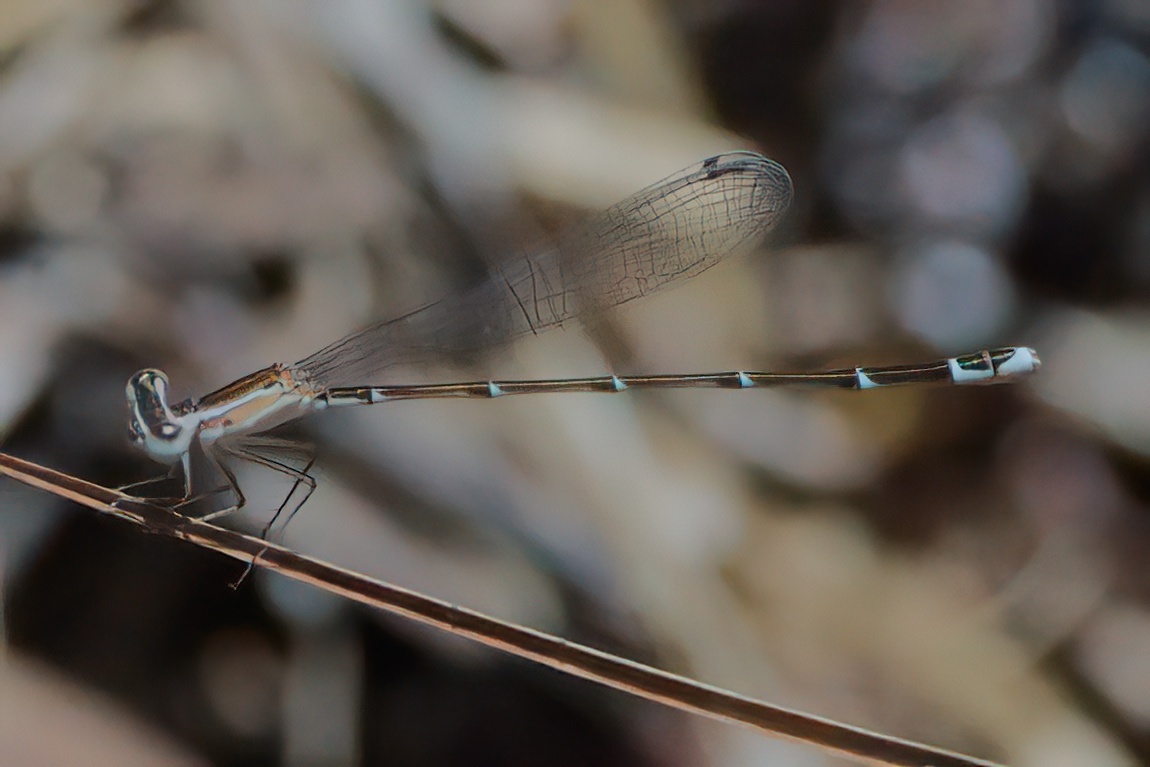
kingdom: Animalia
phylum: Arthropoda
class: Insecta
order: Odonata
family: Coenagrionidae
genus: Nehalennia
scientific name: Nehalennia pallidula
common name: Everglades sprite
